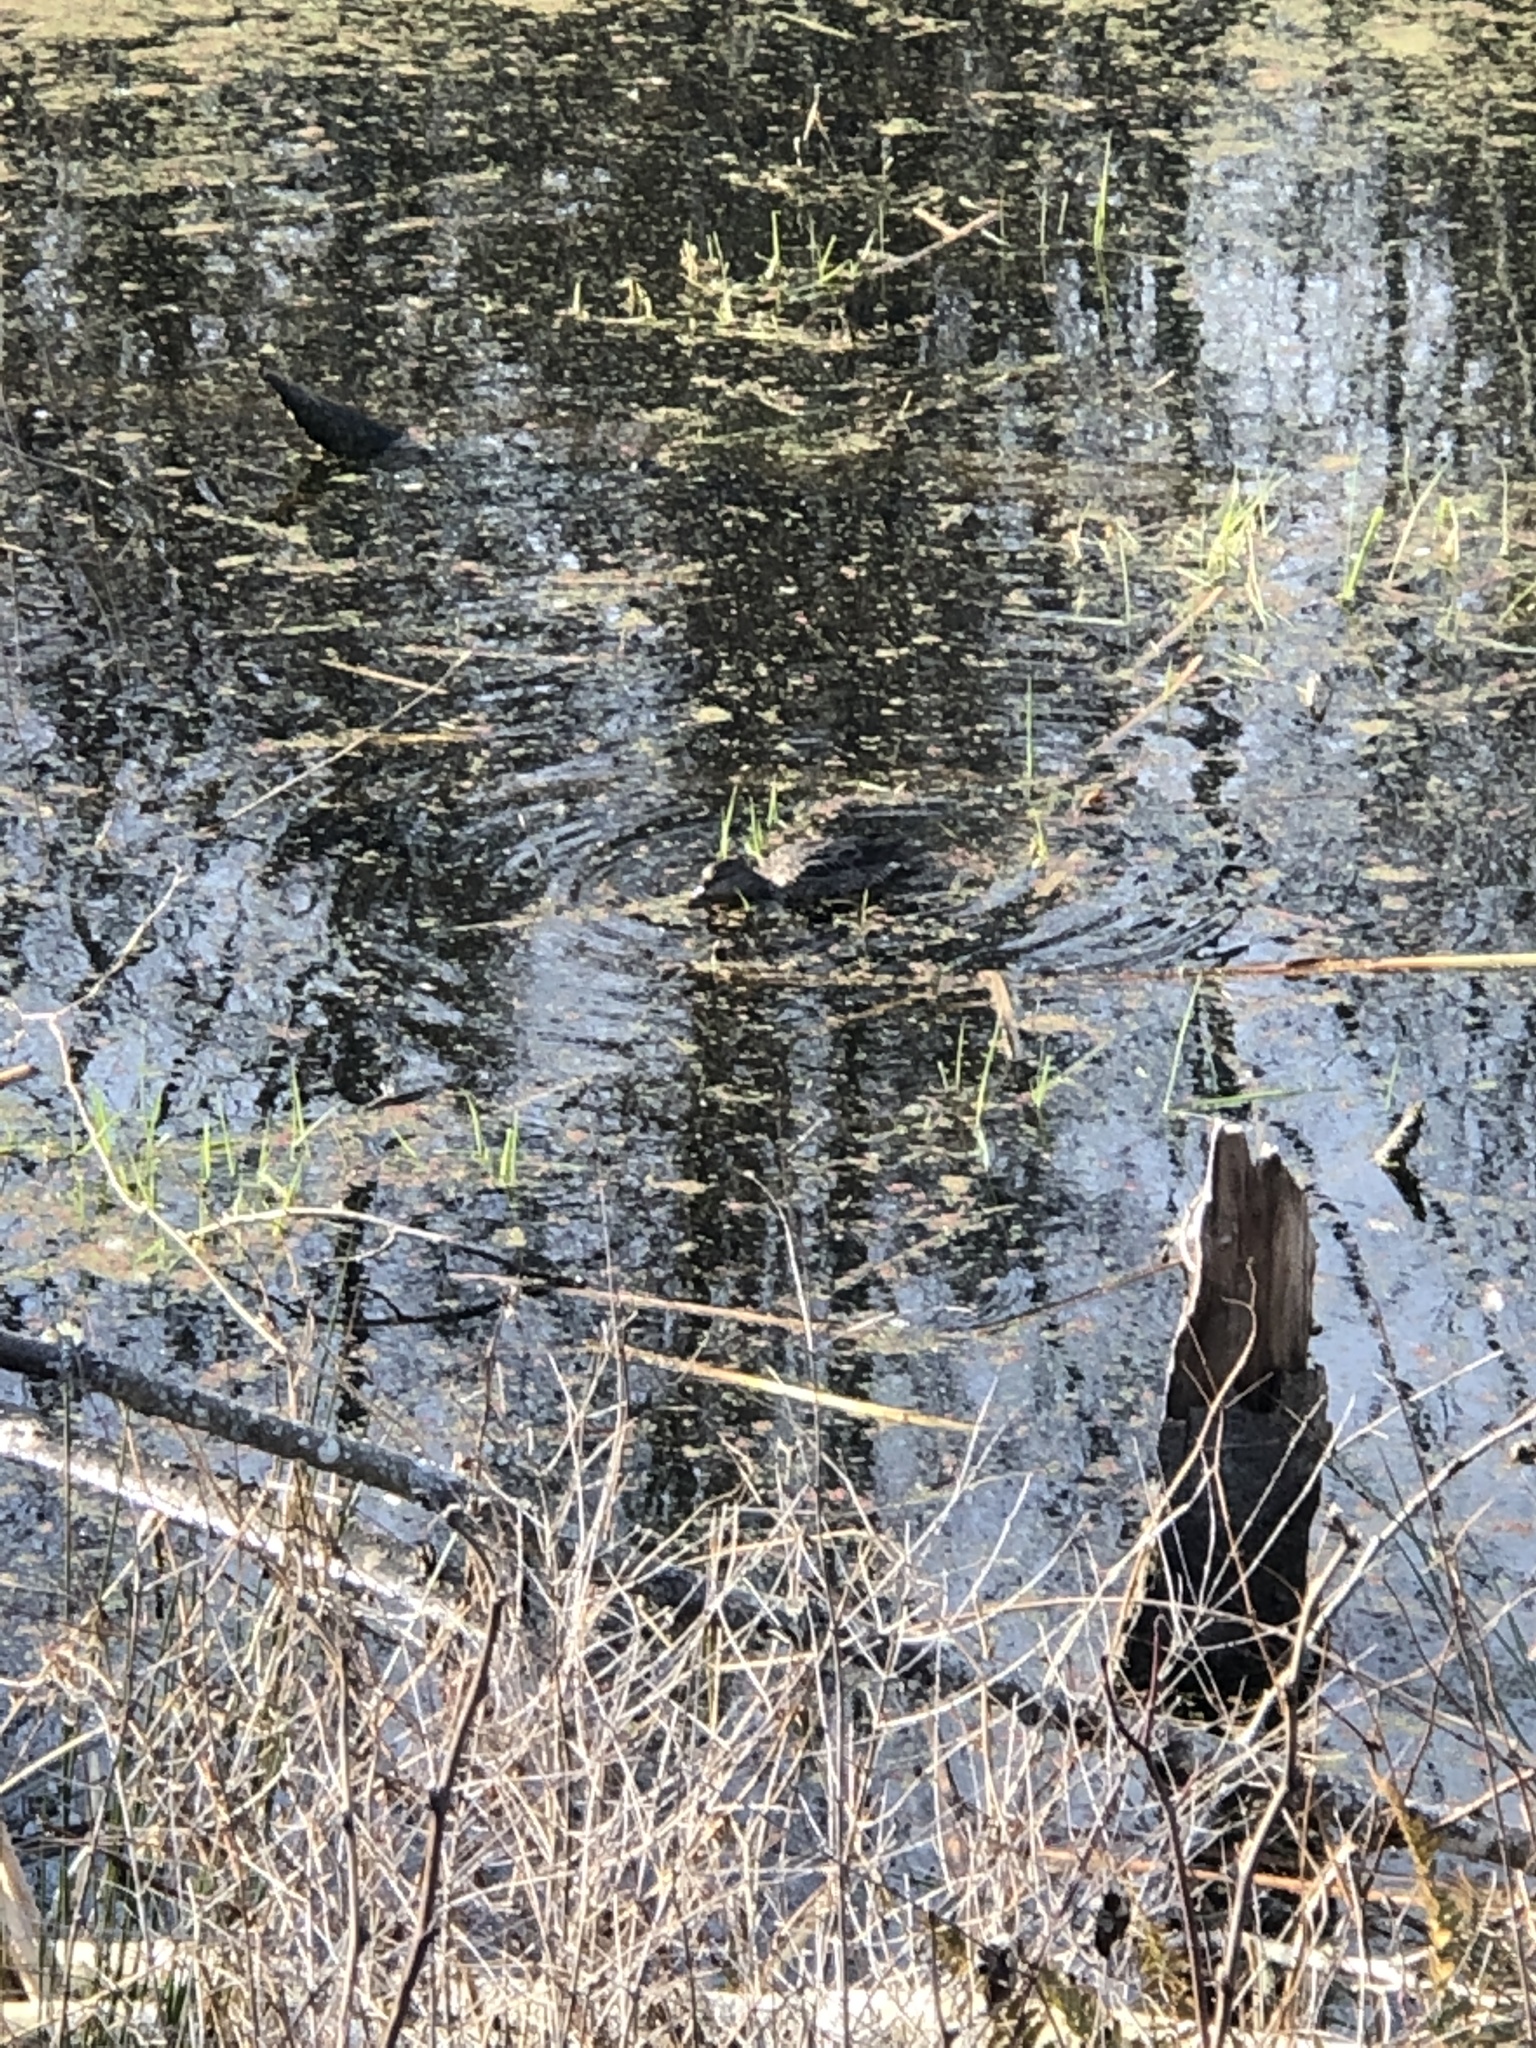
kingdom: Animalia
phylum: Chordata
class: Aves
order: Anseriformes
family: Anatidae
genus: Anas
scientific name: Anas platyrhynchos
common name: Mallard
